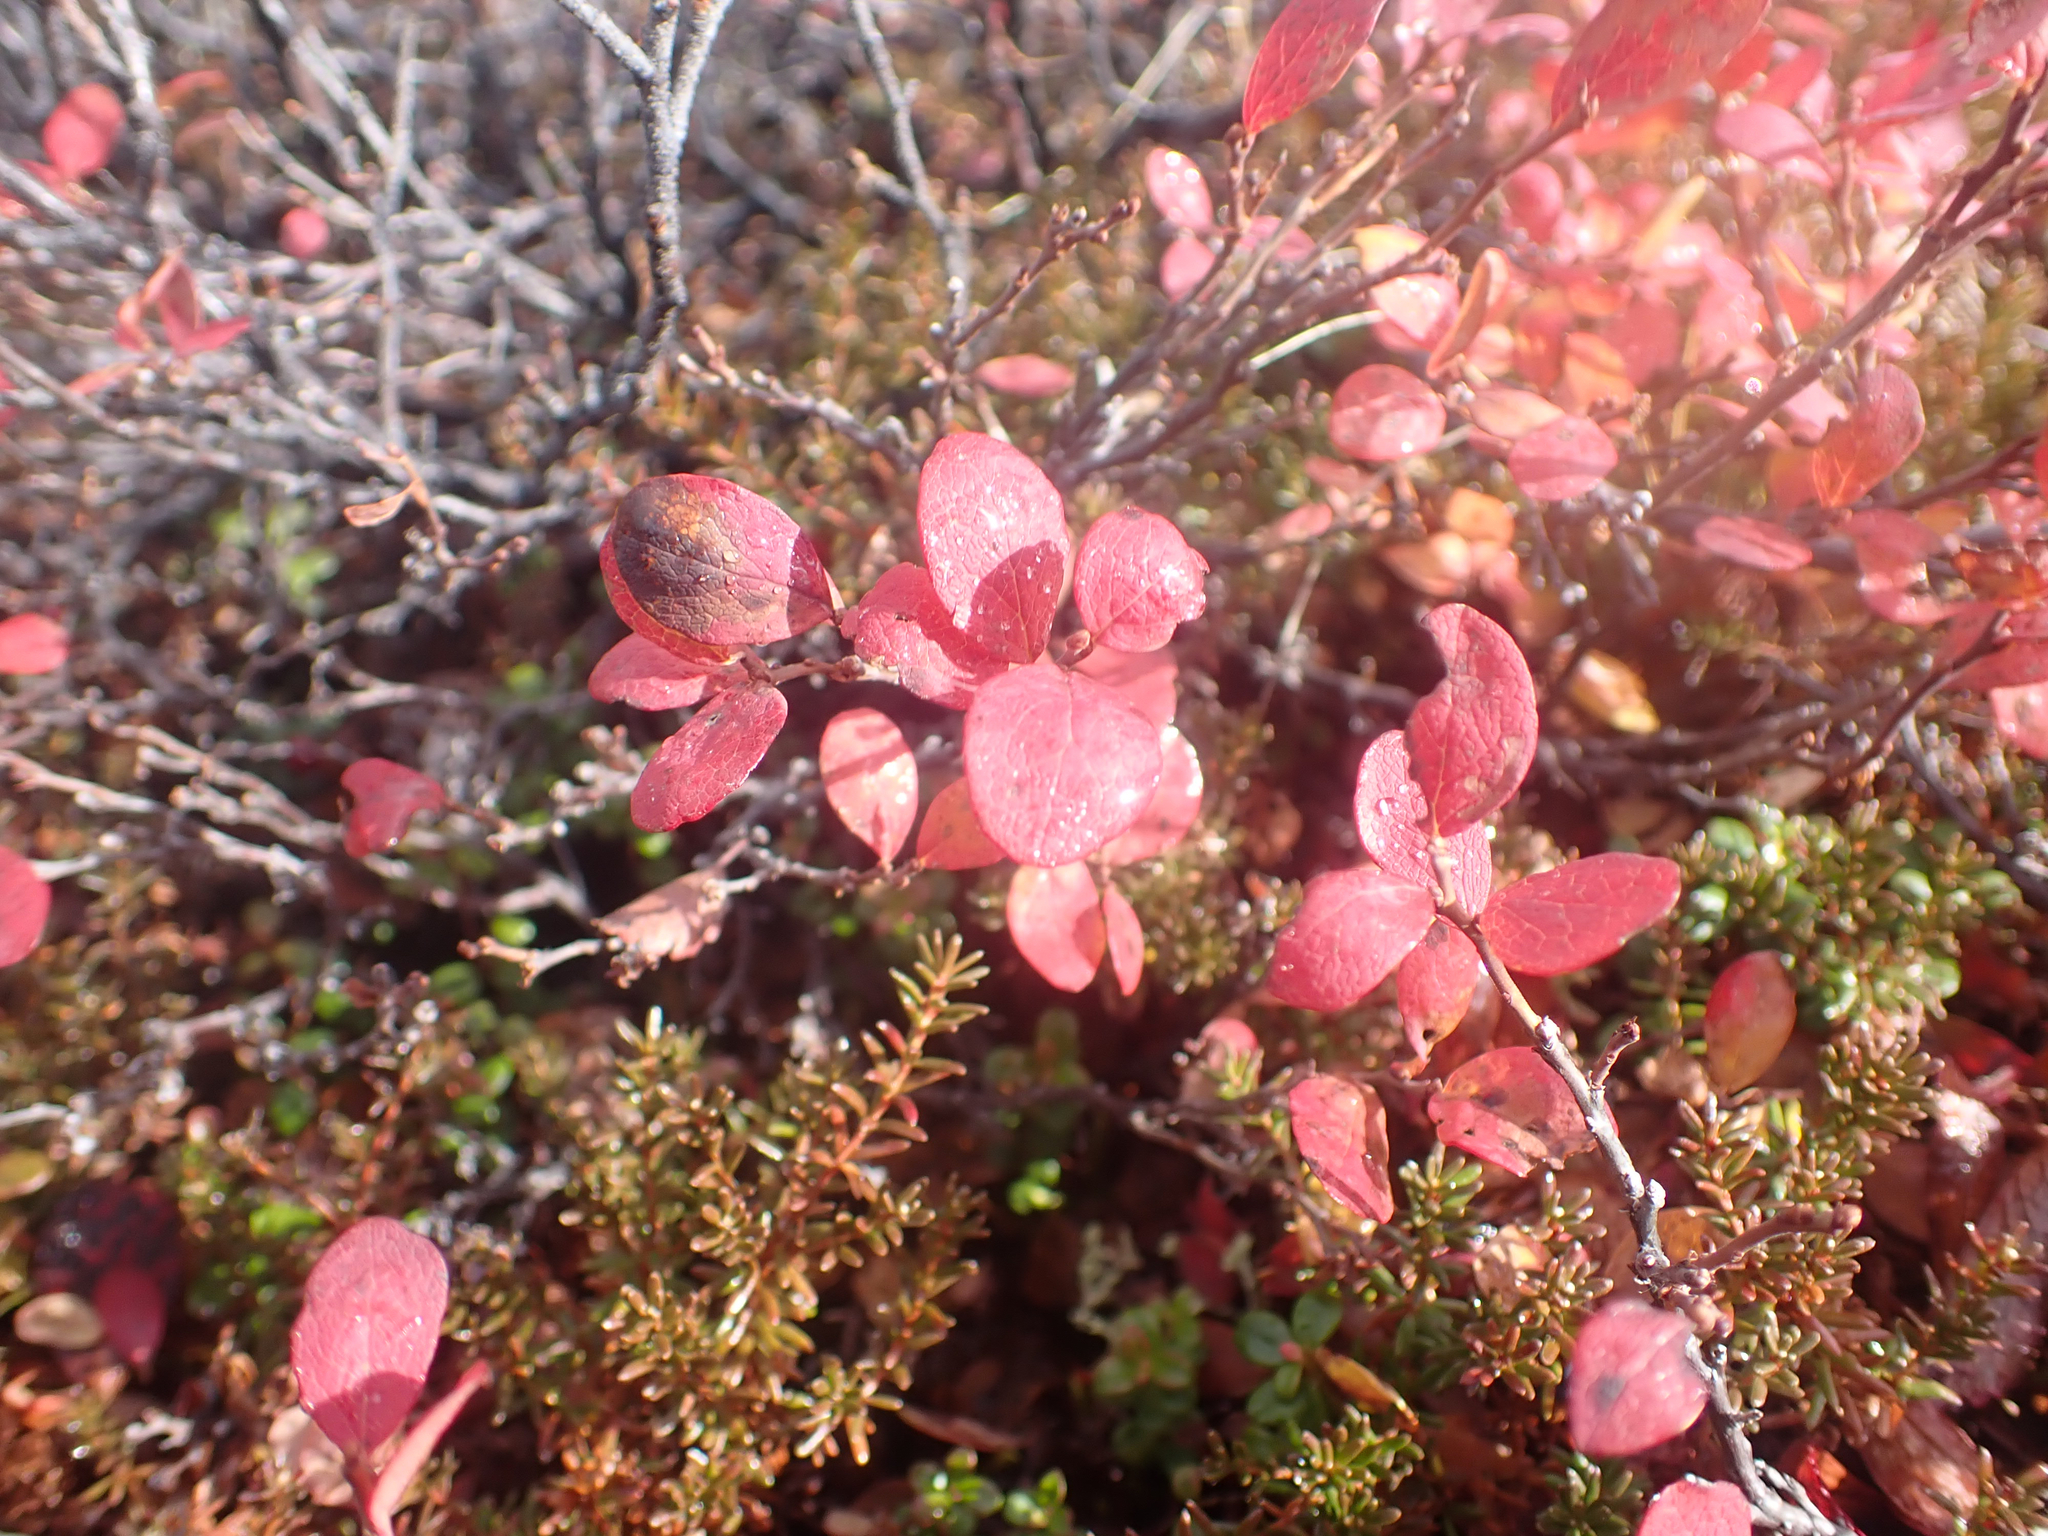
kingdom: Plantae
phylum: Tracheophyta
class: Magnoliopsida
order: Ericales
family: Ericaceae
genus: Vaccinium
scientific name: Vaccinium uliginosum
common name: Bog bilberry
